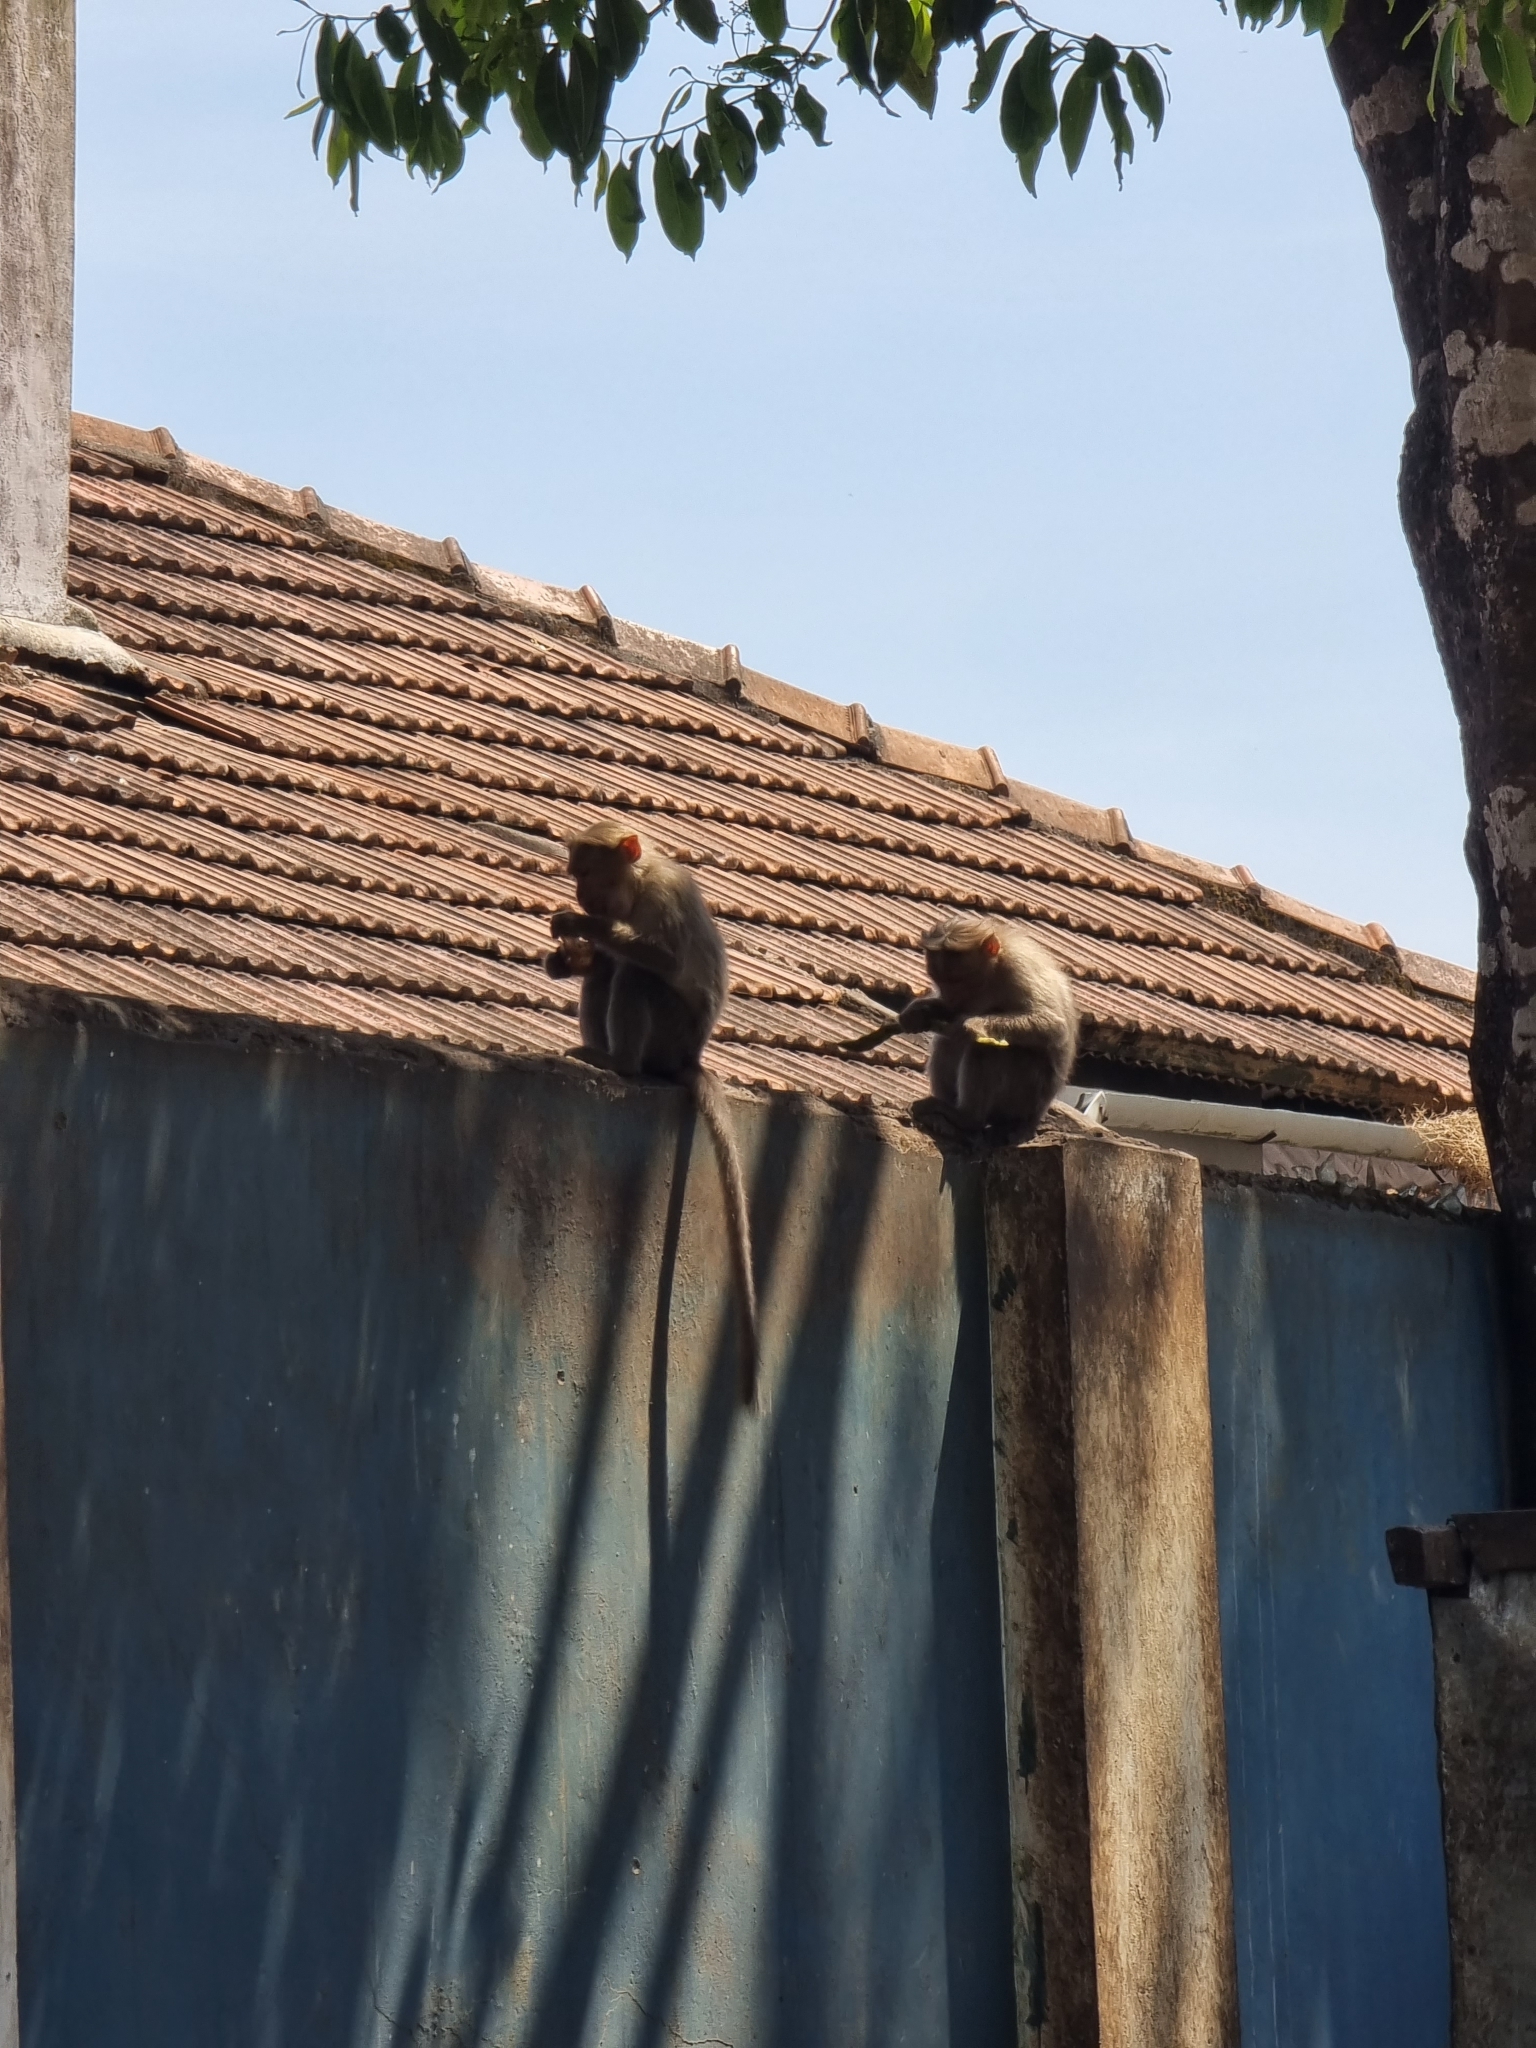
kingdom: Animalia
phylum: Chordata
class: Mammalia
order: Primates
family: Cercopithecidae
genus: Macaca
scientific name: Macaca radiata
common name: Bonnet macaque
